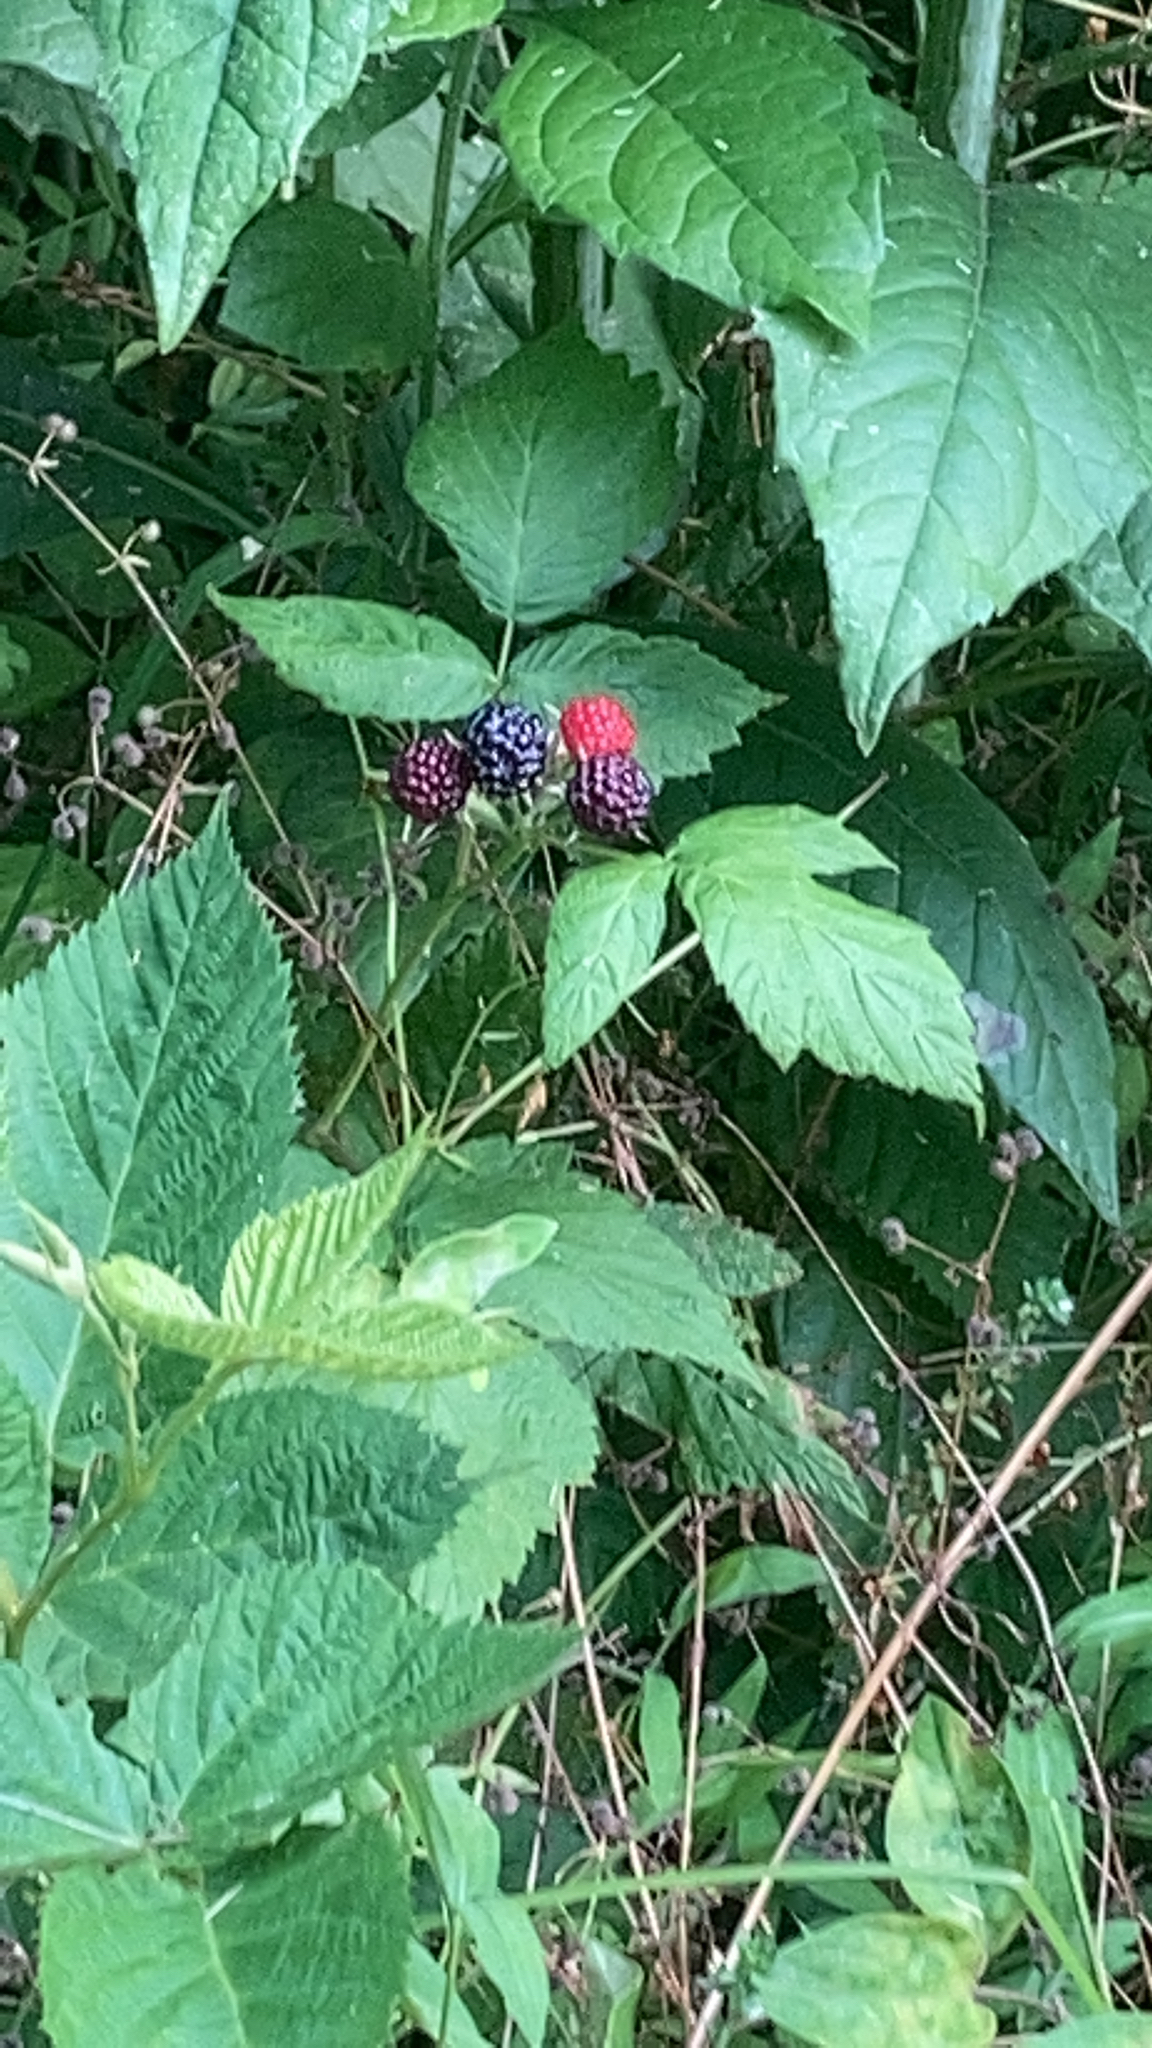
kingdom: Plantae
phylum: Tracheophyta
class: Magnoliopsida
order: Rosales
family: Rosaceae
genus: Rubus
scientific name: Rubus occidentalis
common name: Black raspberry
